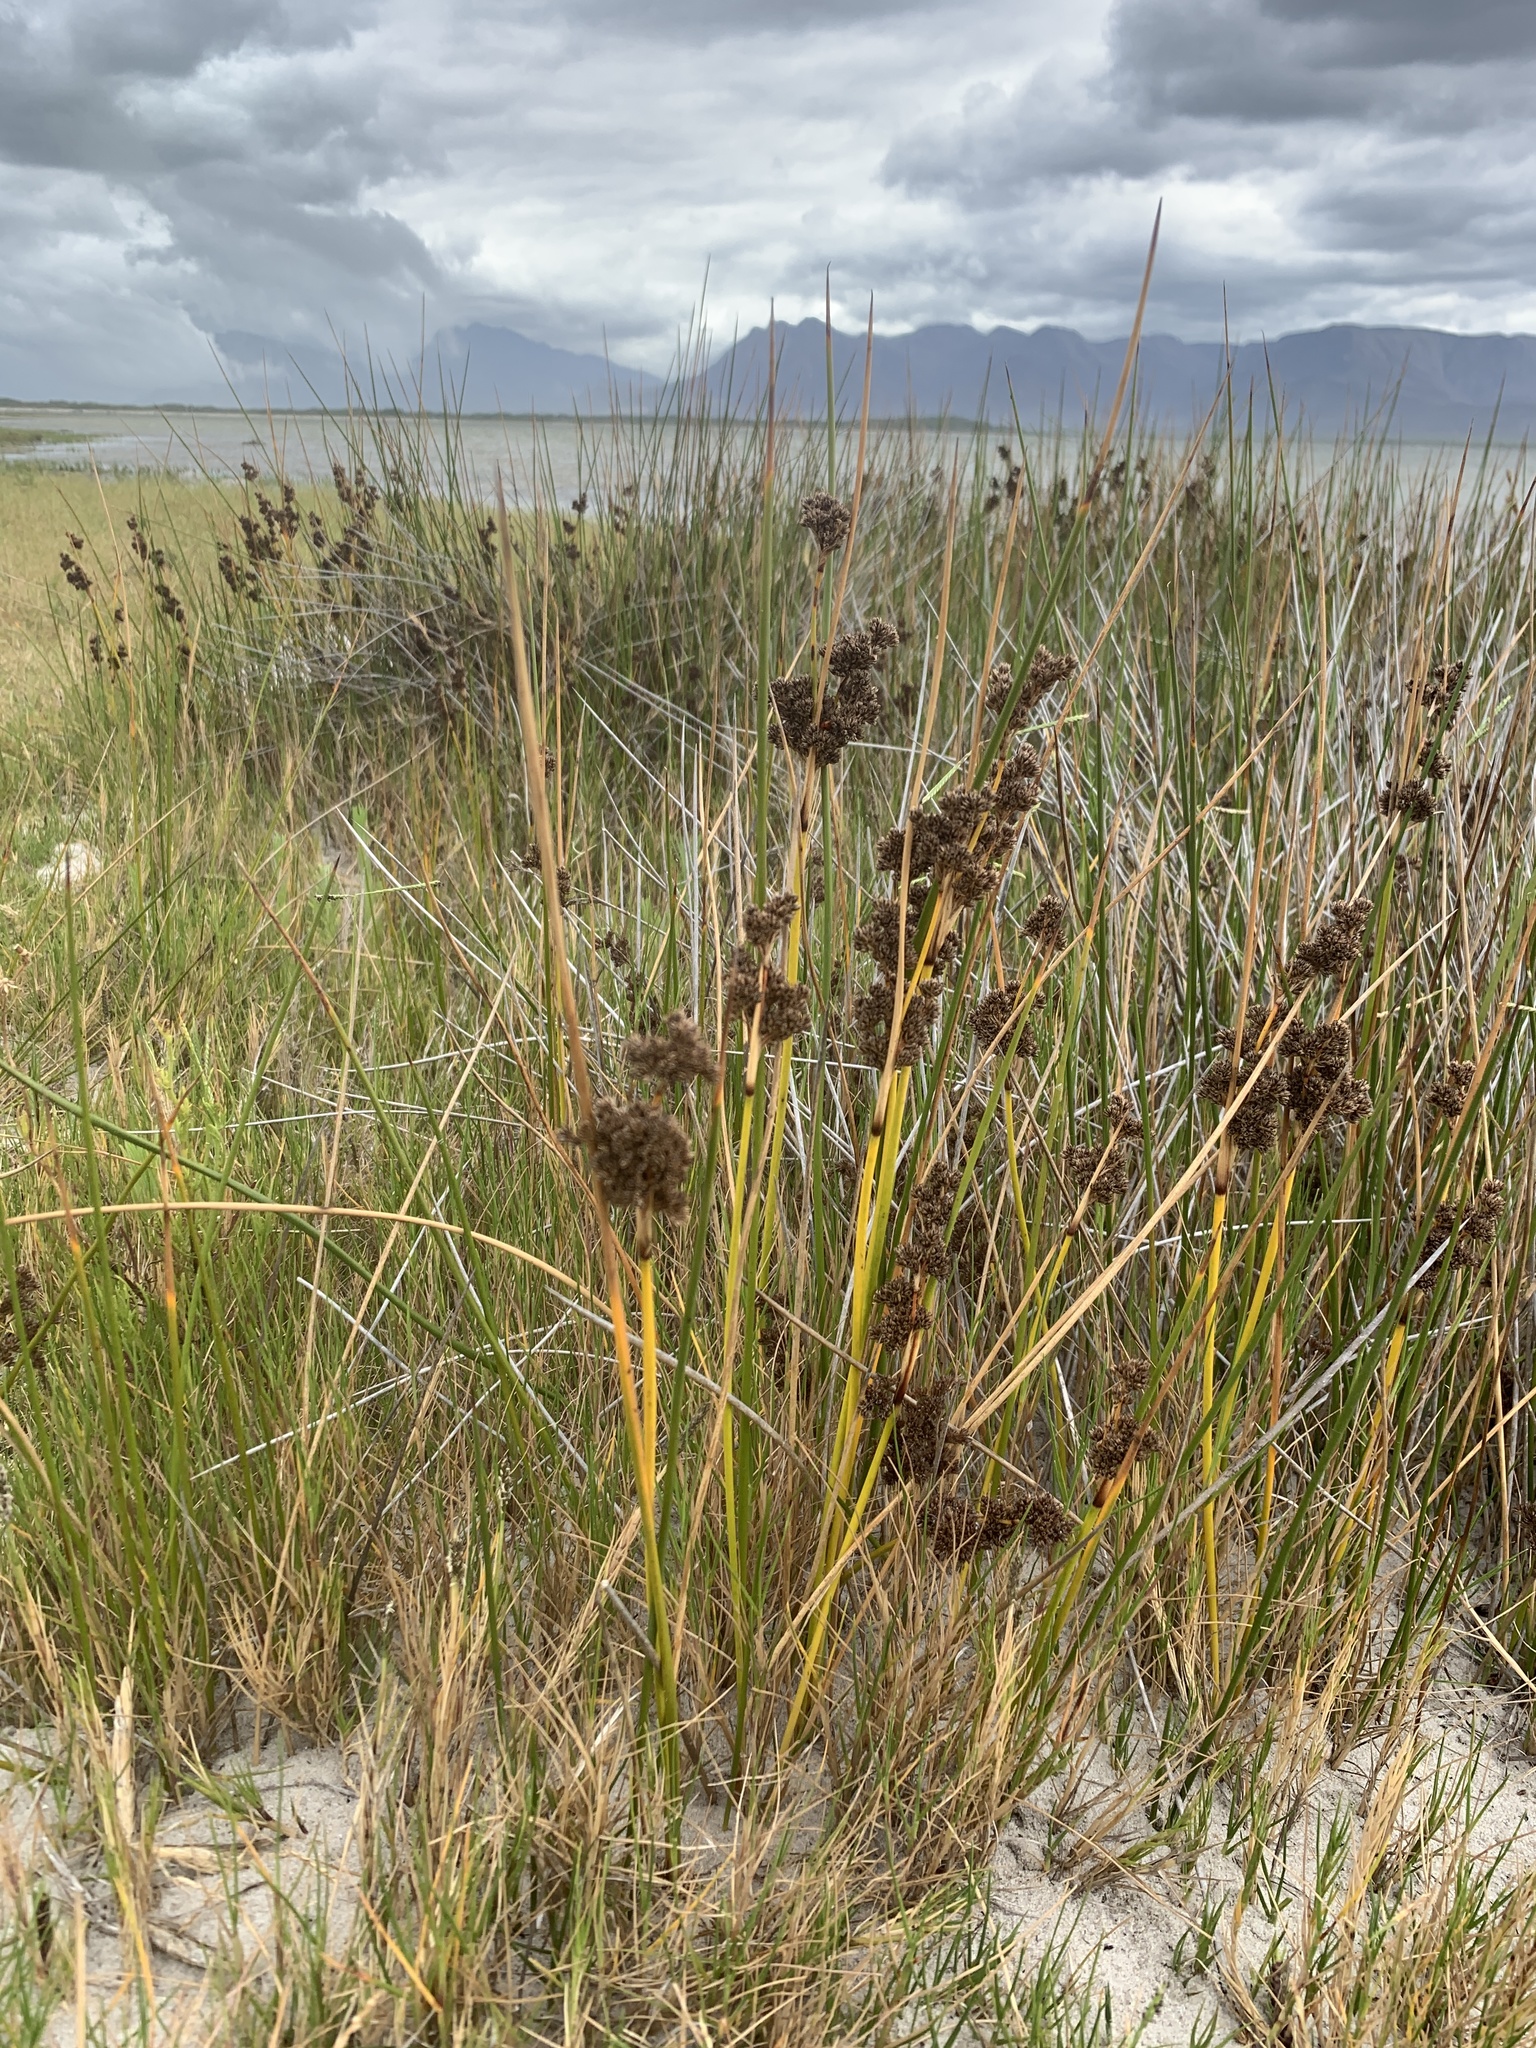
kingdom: Plantae
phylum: Tracheophyta
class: Liliopsida
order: Poales
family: Juncaceae
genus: Juncus
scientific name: Juncus kraussii
